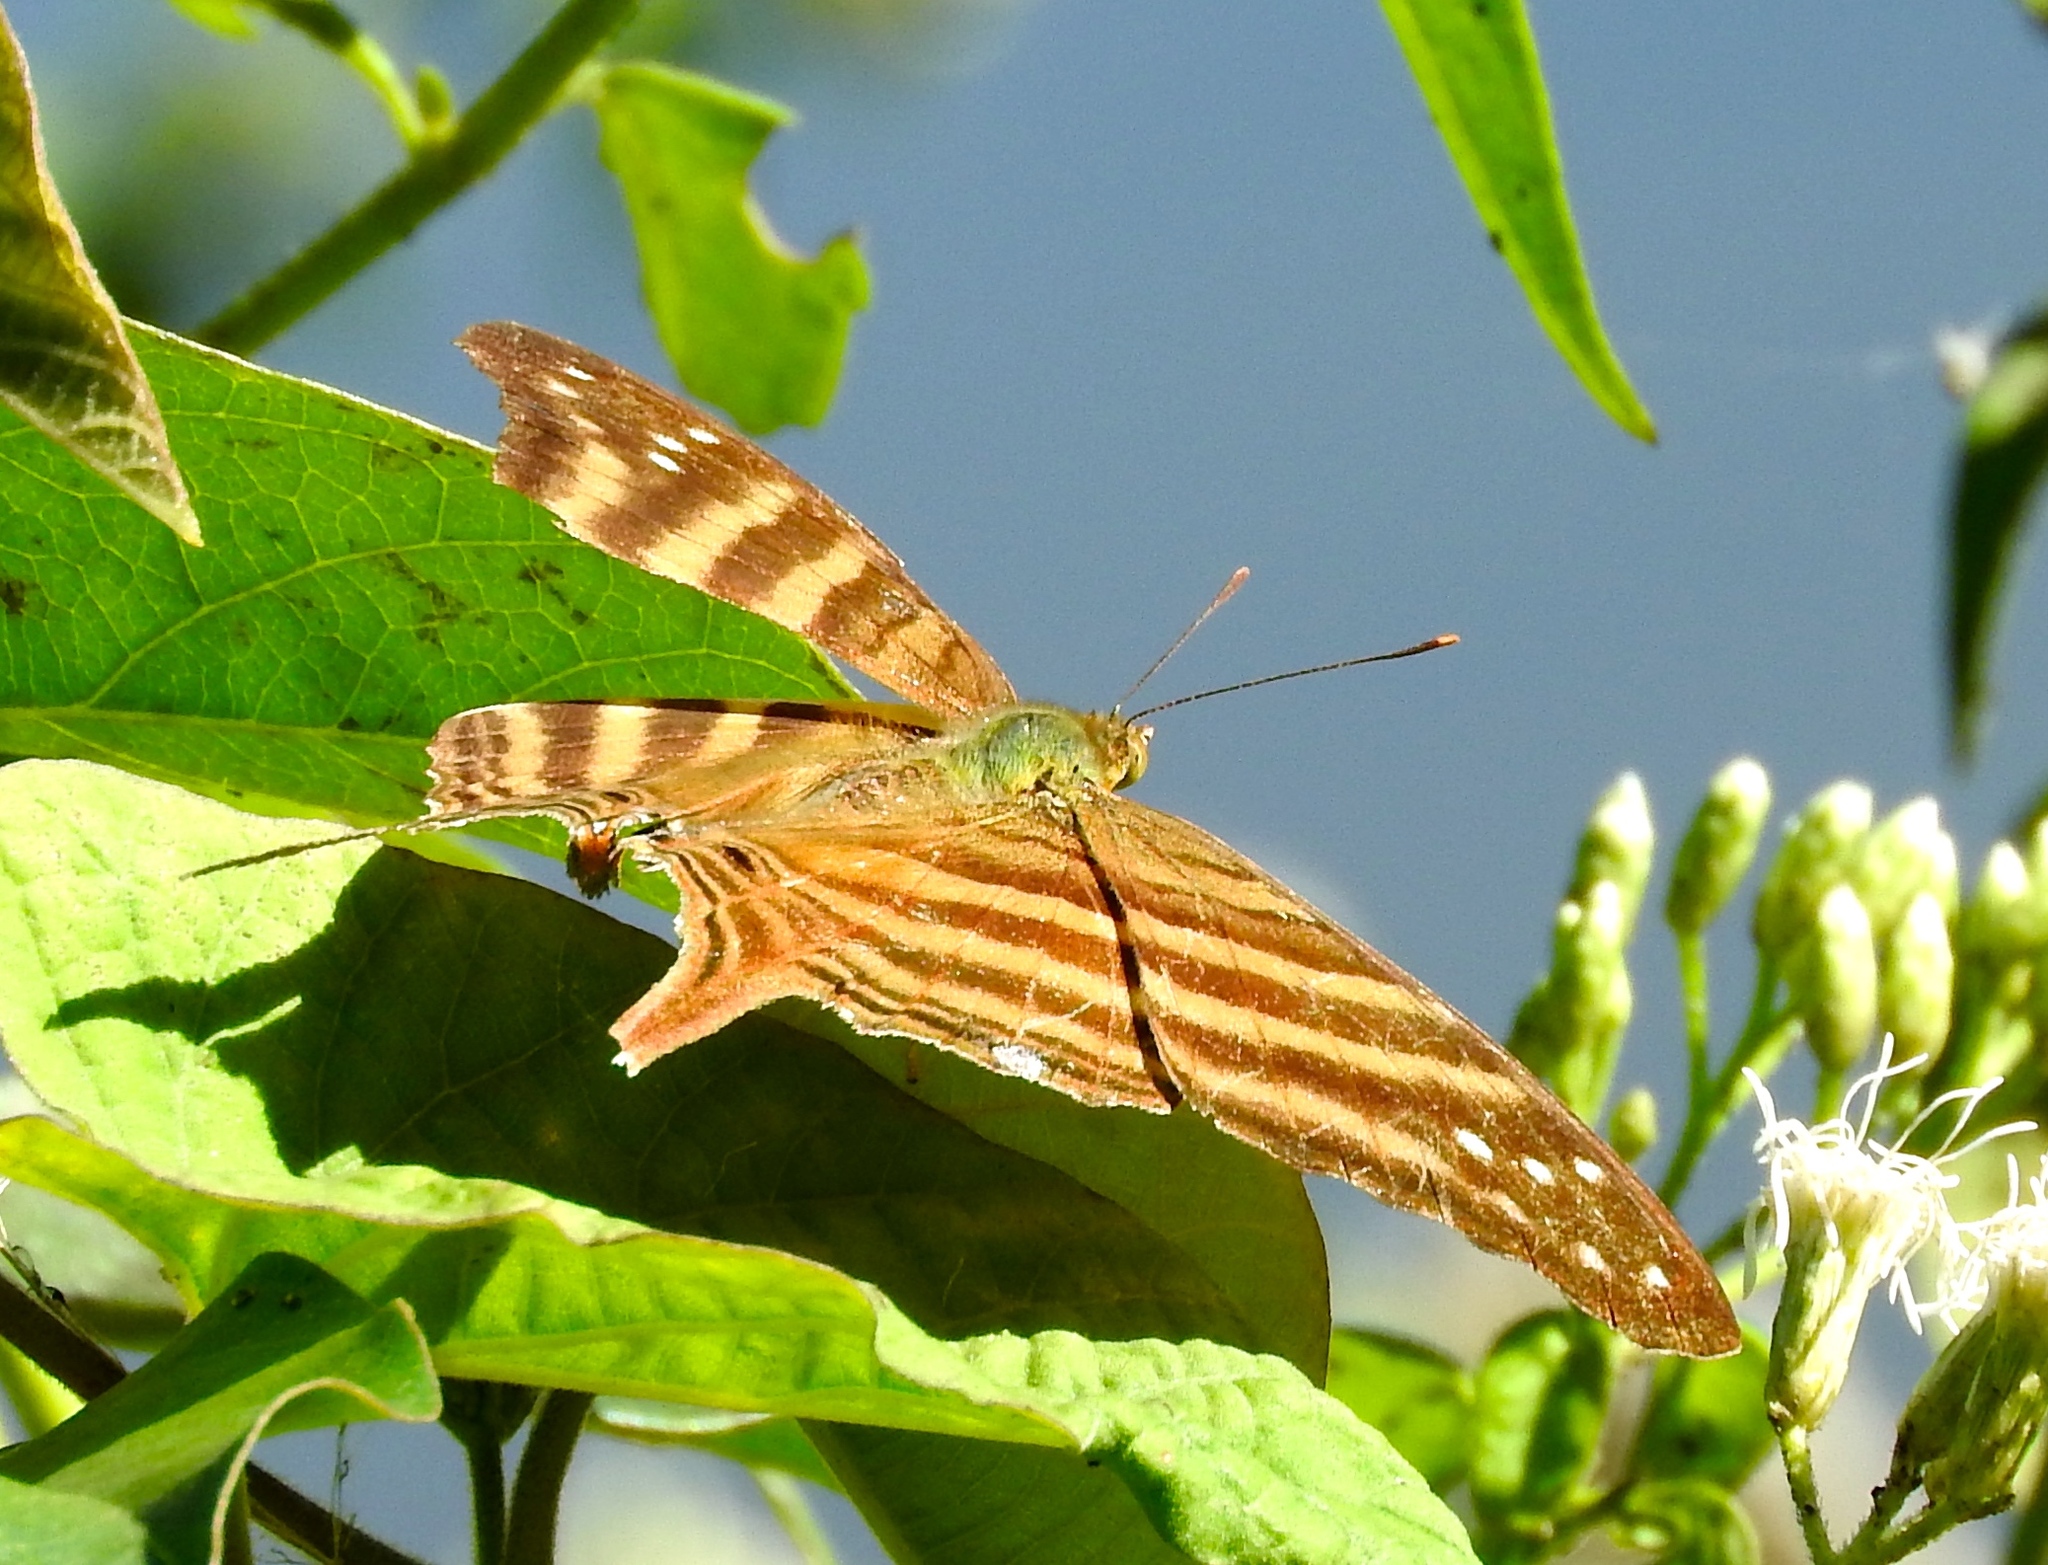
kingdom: Animalia
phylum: Arthropoda
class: Insecta
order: Lepidoptera
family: Nymphalidae
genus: Marpesia
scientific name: Marpesia chiron
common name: Many-banded daggerwing
